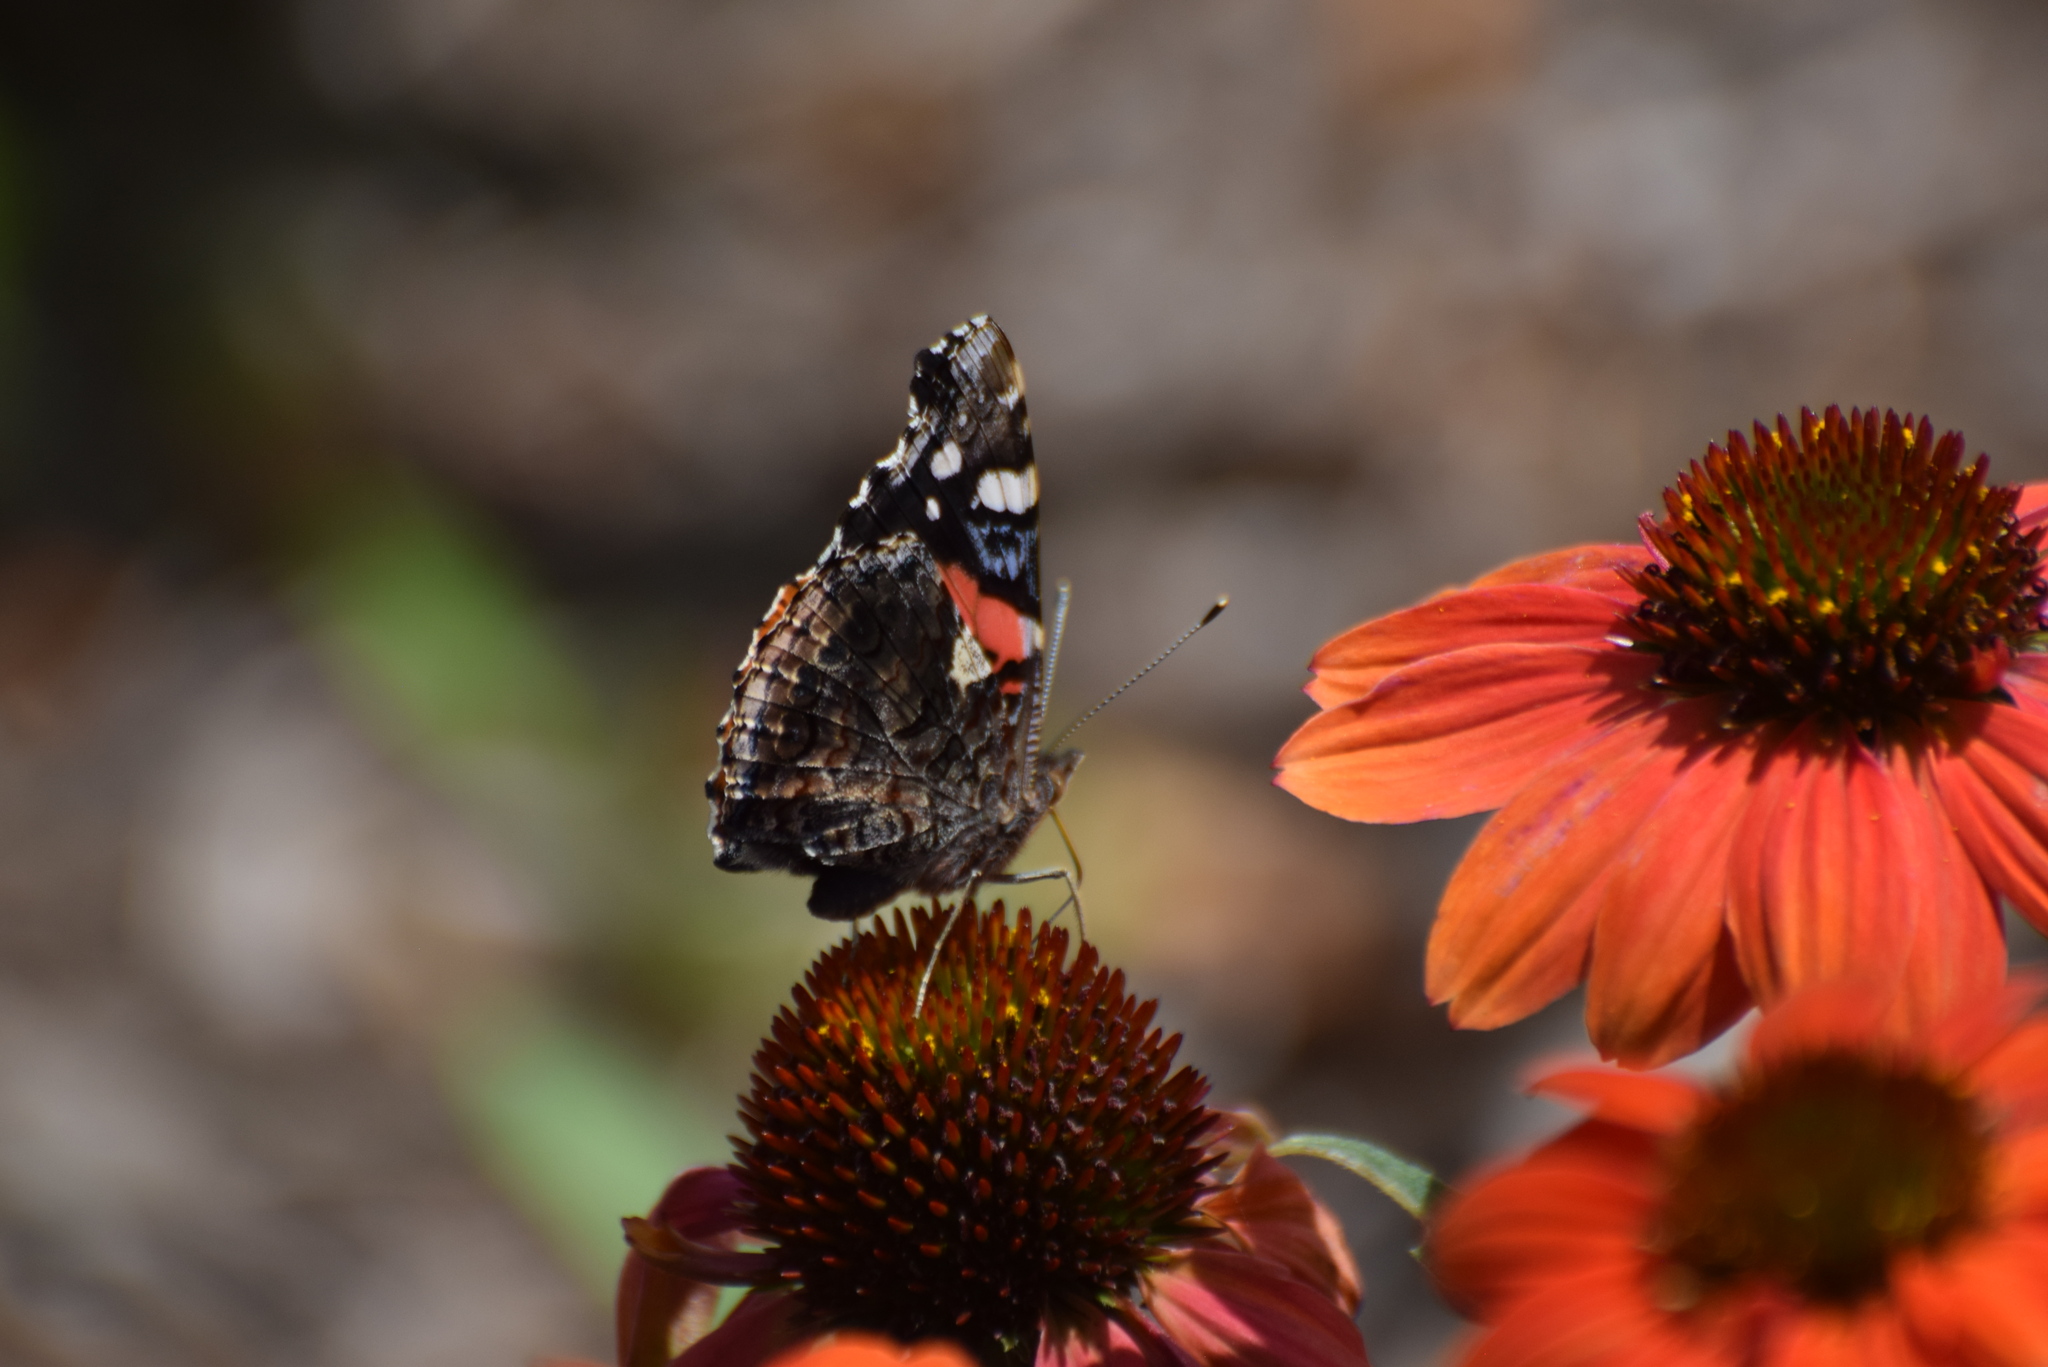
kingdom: Animalia
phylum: Arthropoda
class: Insecta
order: Lepidoptera
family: Nymphalidae
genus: Vanessa
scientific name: Vanessa atalanta
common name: Red admiral
